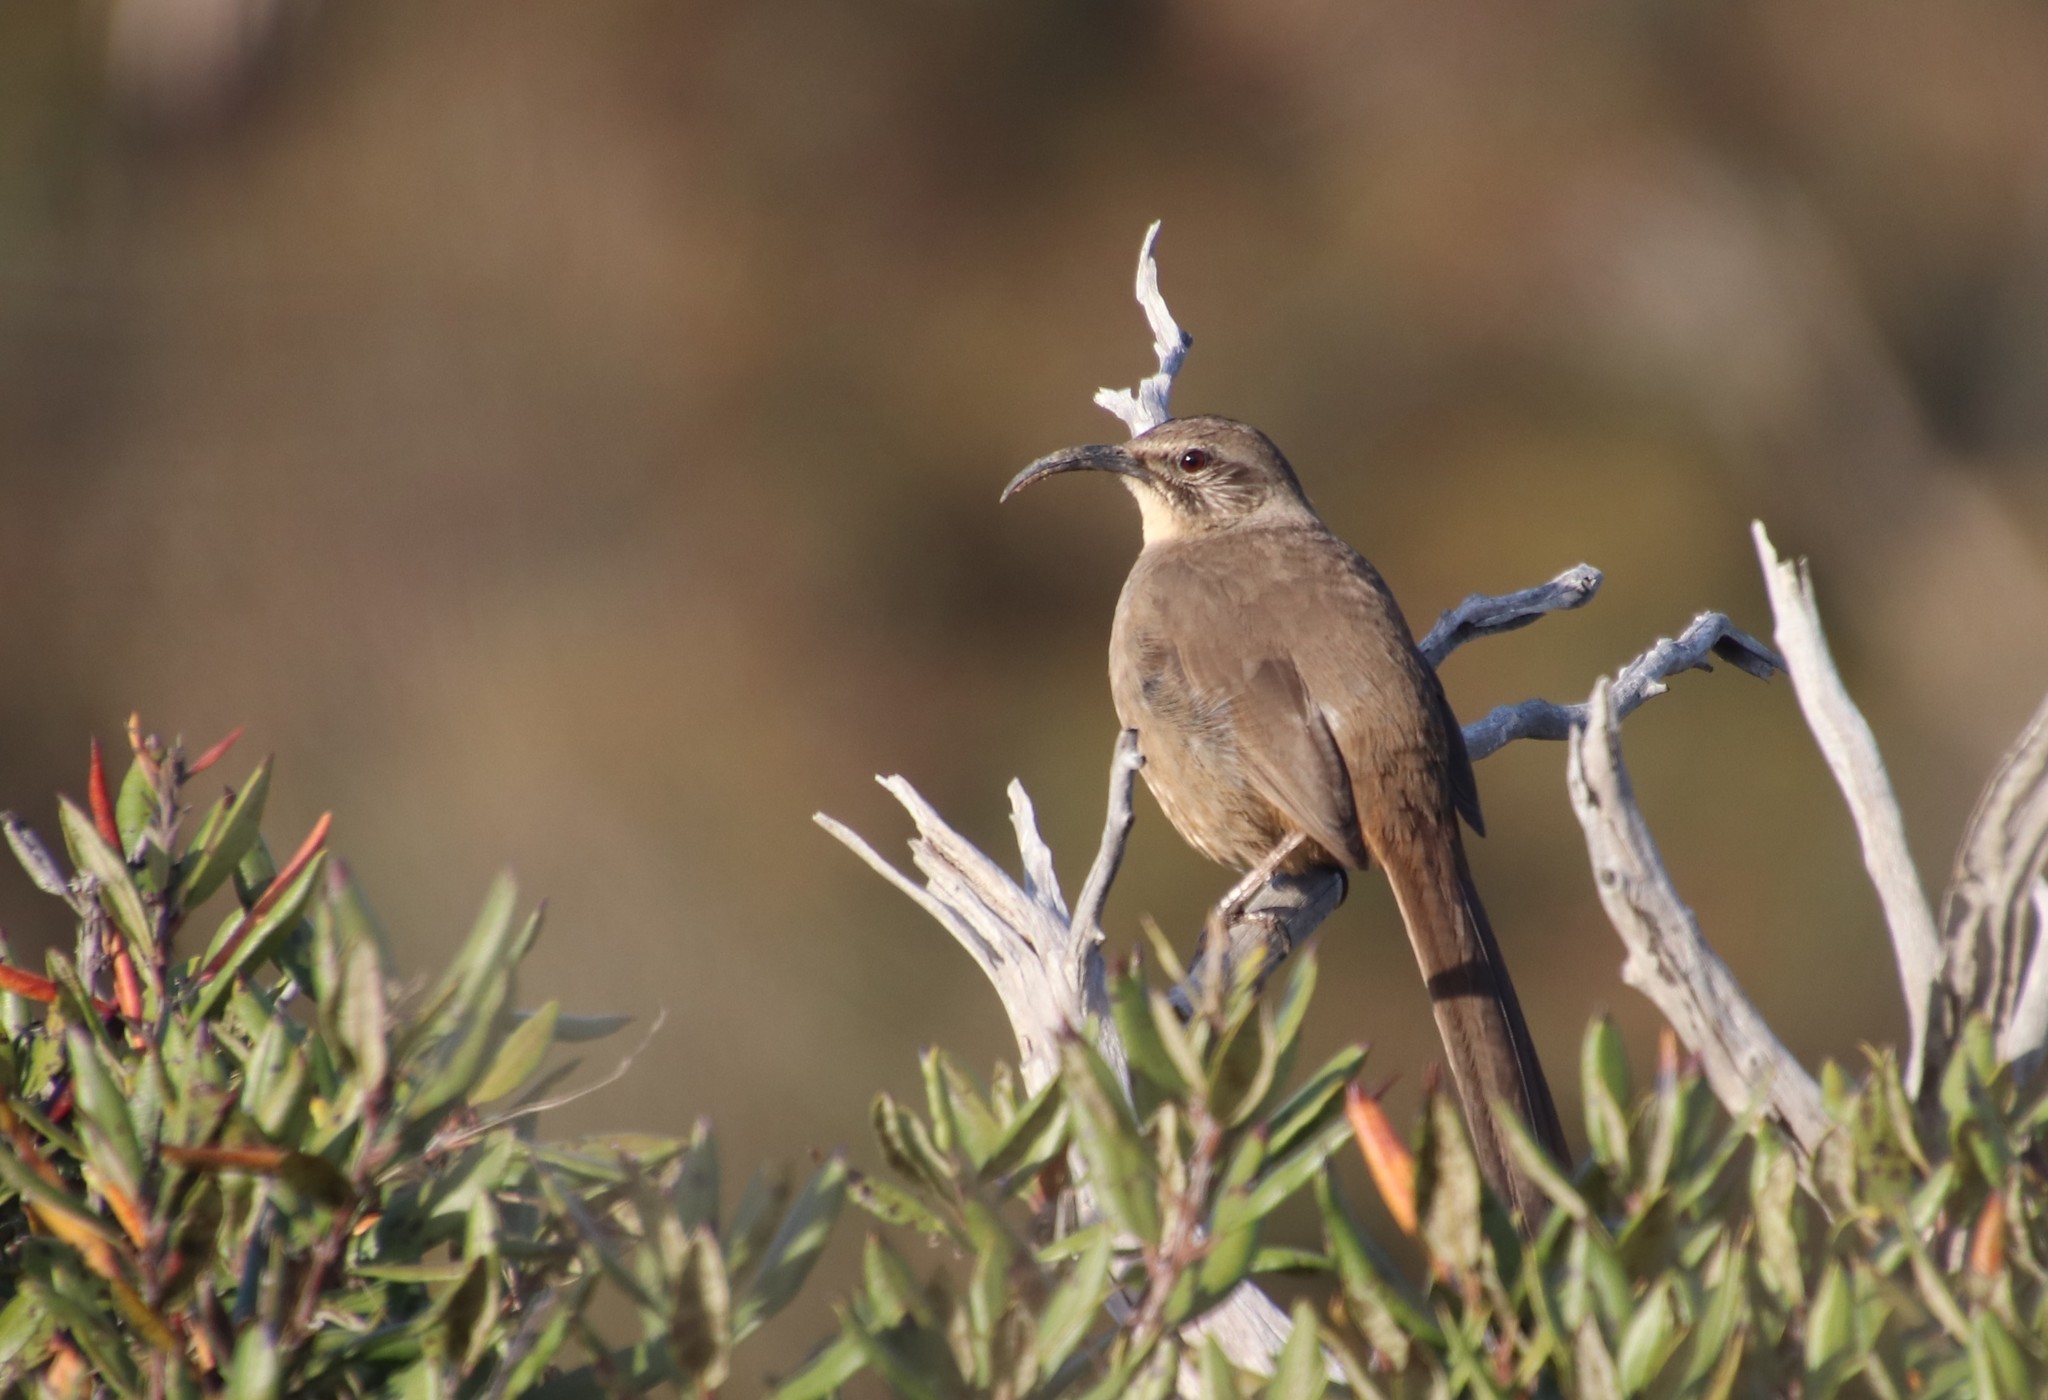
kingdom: Animalia
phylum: Chordata
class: Aves
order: Passeriformes
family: Mimidae
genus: Toxostoma
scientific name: Toxostoma redivivum
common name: California thrasher
